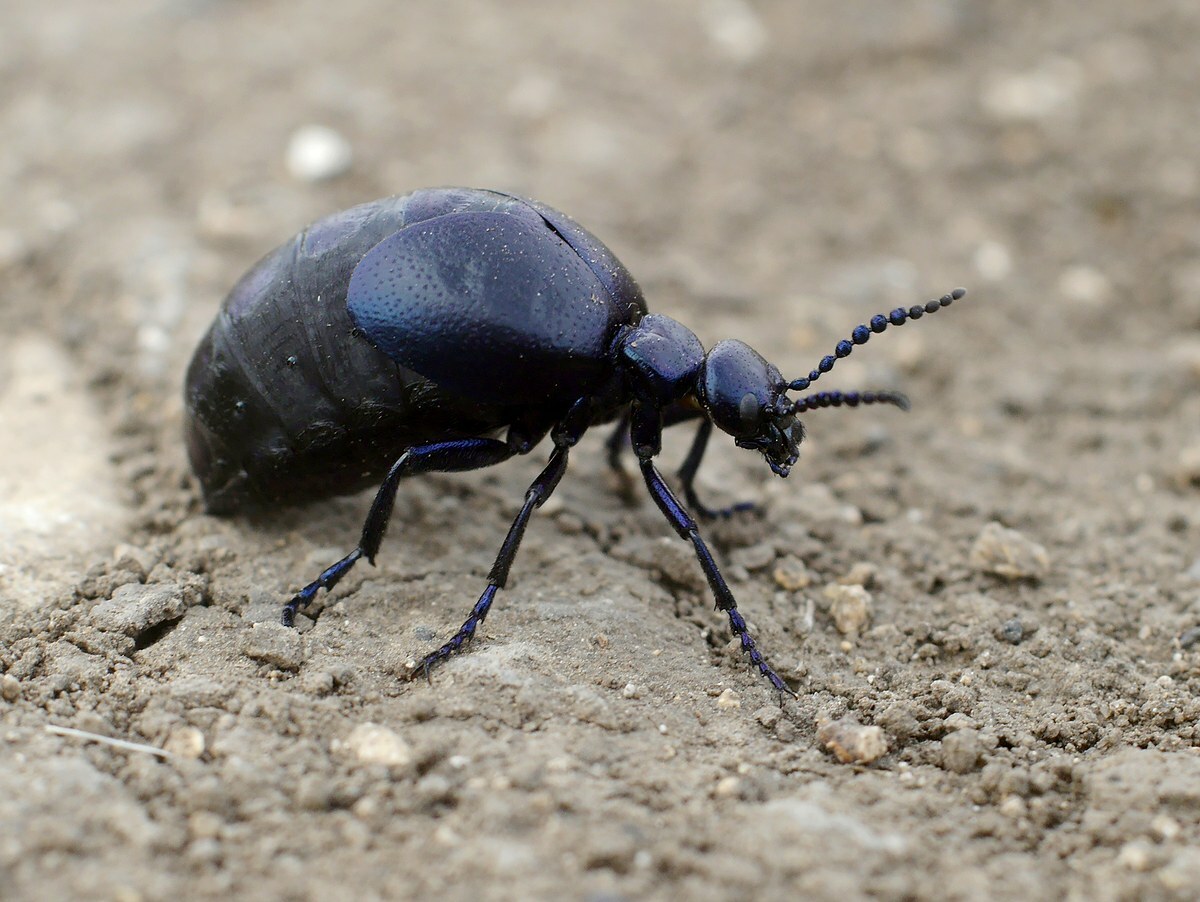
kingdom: Animalia
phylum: Arthropoda
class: Insecta
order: Coleoptera
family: Meloidae
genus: Meloe
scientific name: Meloe autumnalis
